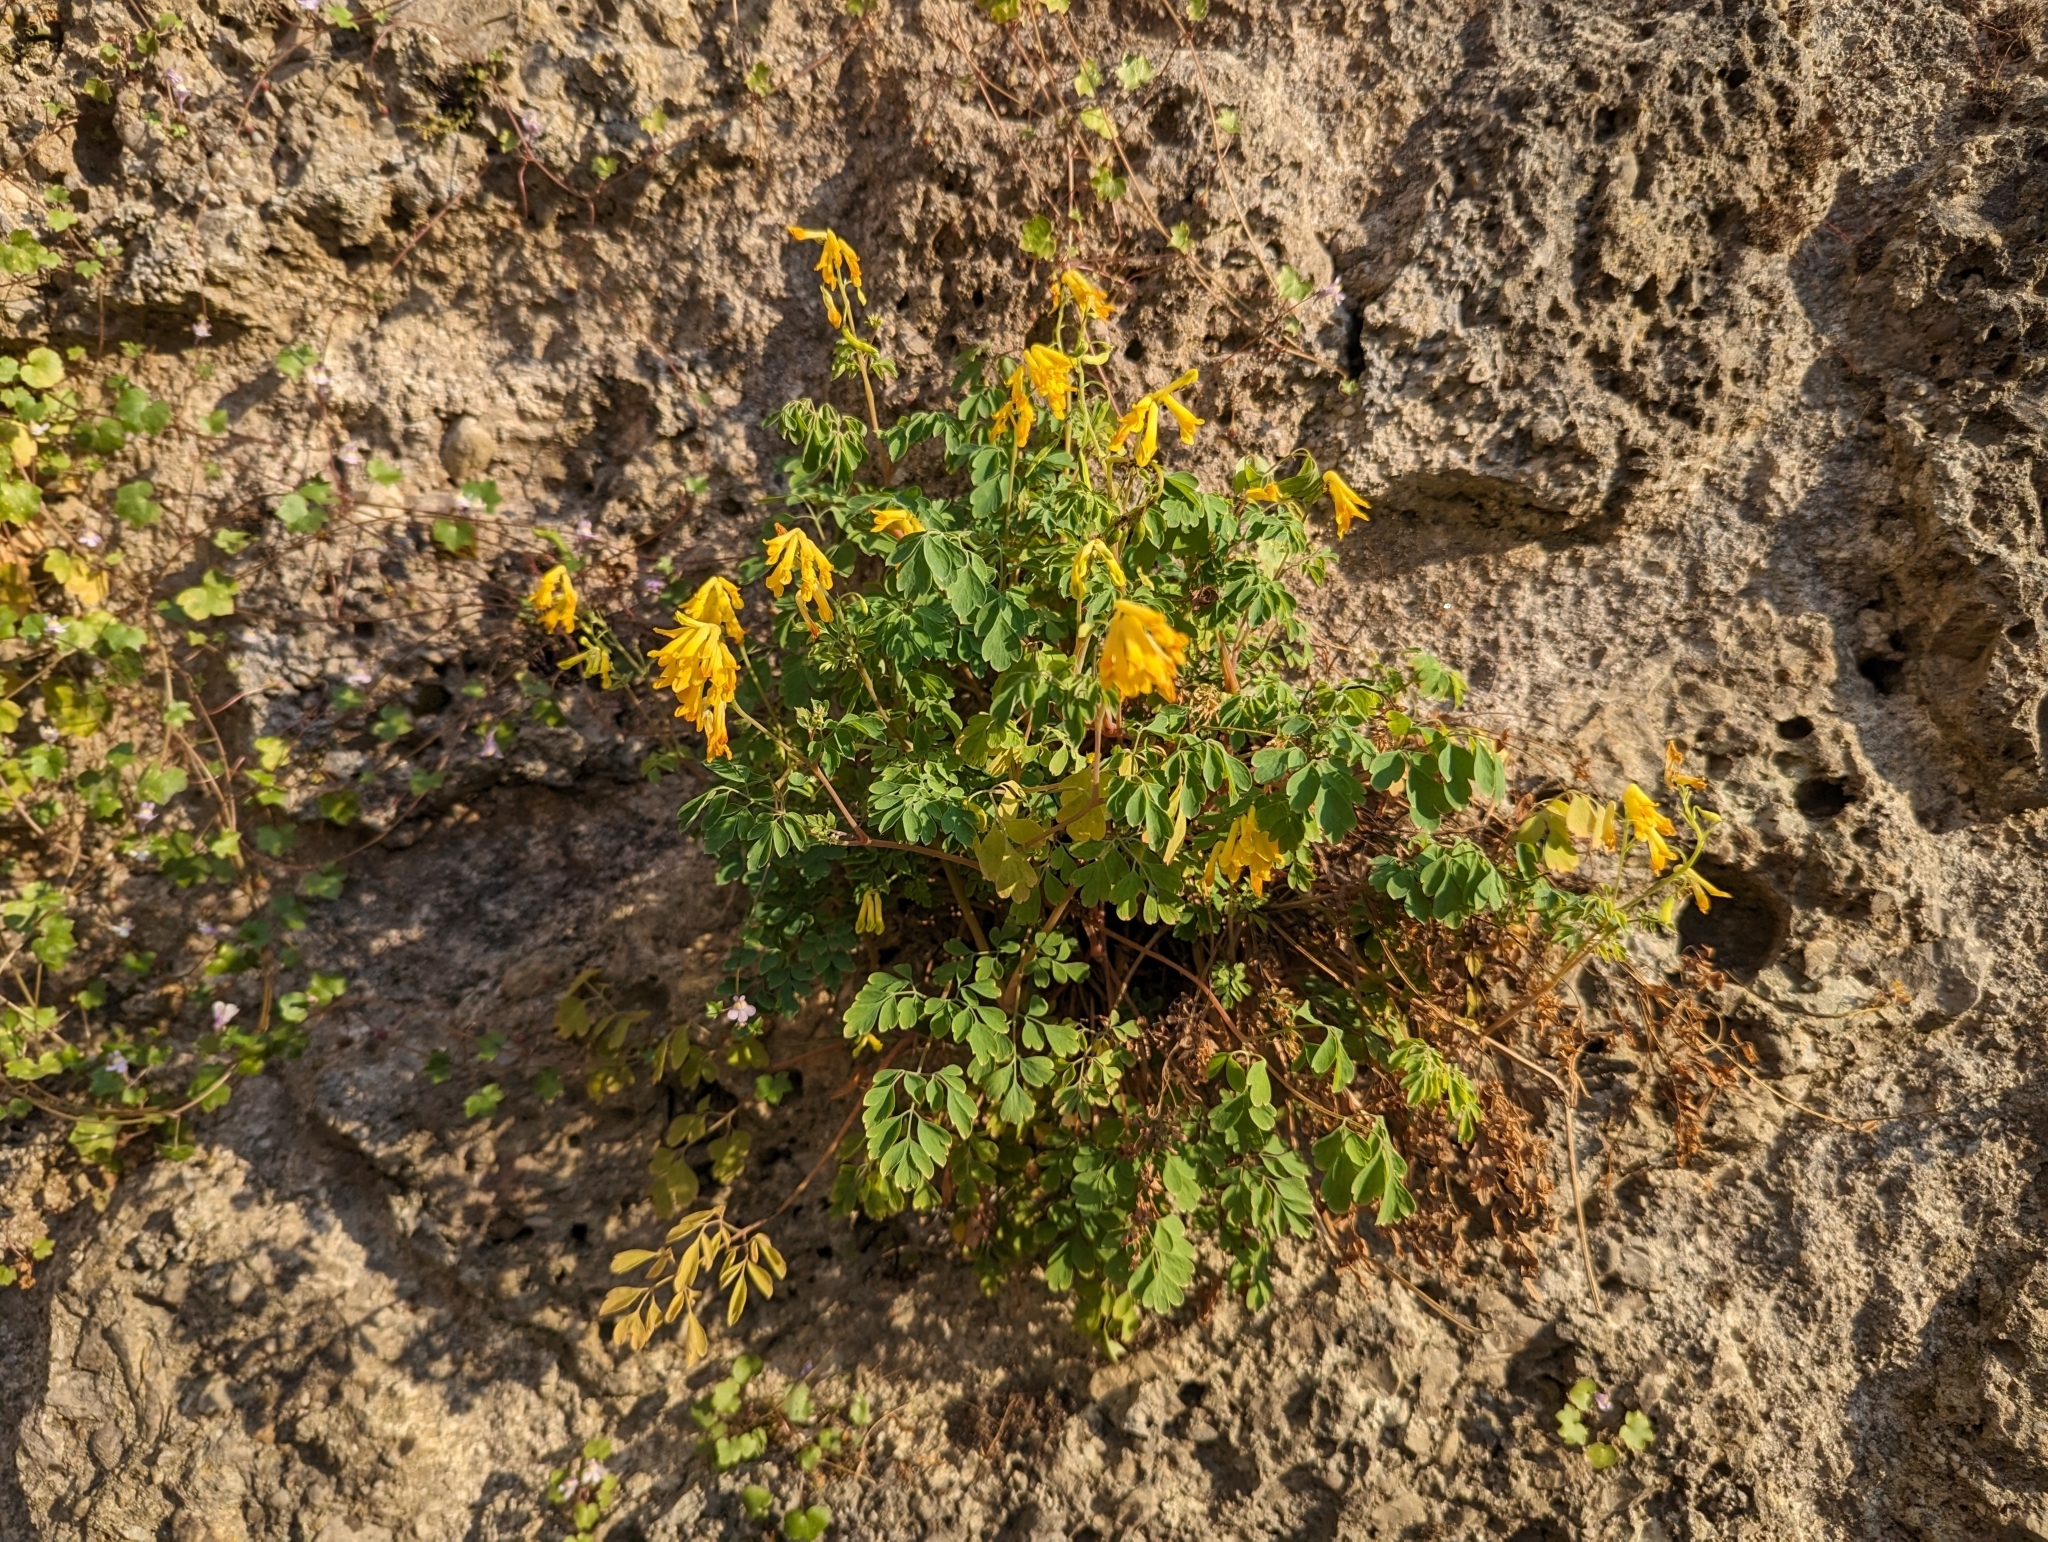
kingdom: Plantae
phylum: Tracheophyta
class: Magnoliopsida
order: Ranunculales
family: Papaveraceae
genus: Pseudofumaria
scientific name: Pseudofumaria lutea
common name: Yellow corydalis
